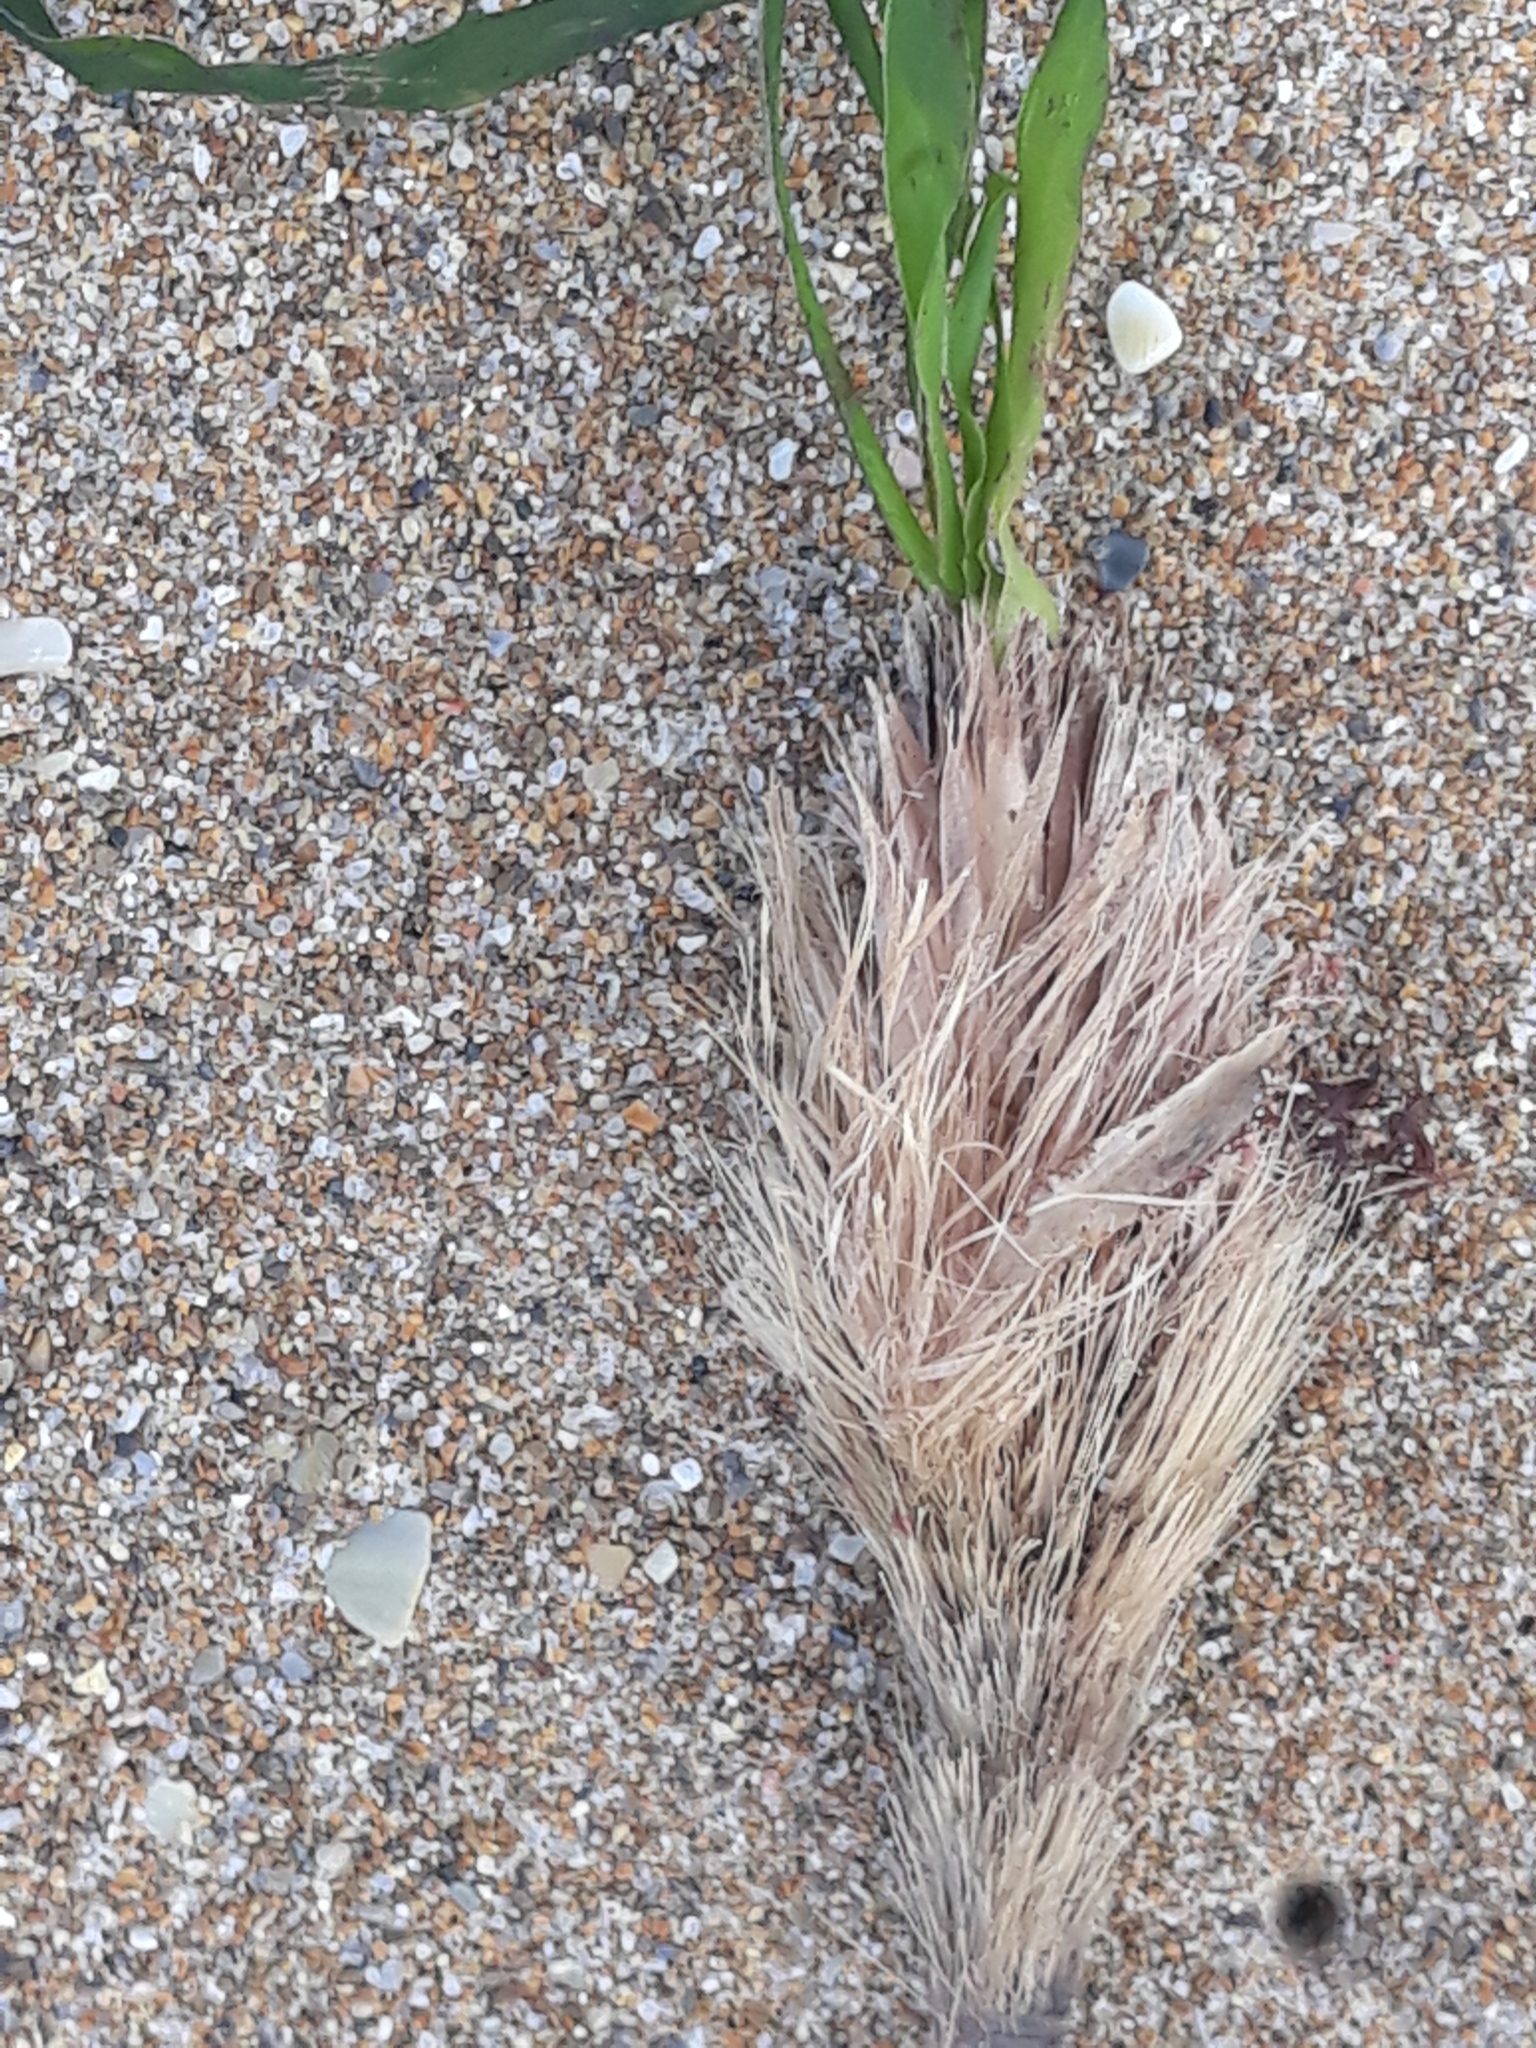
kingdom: Plantae
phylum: Tracheophyta
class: Liliopsida
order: Alismatales
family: Posidoniaceae
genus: Posidonia
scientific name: Posidonia oceanica
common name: Mediterranean tapeweed
